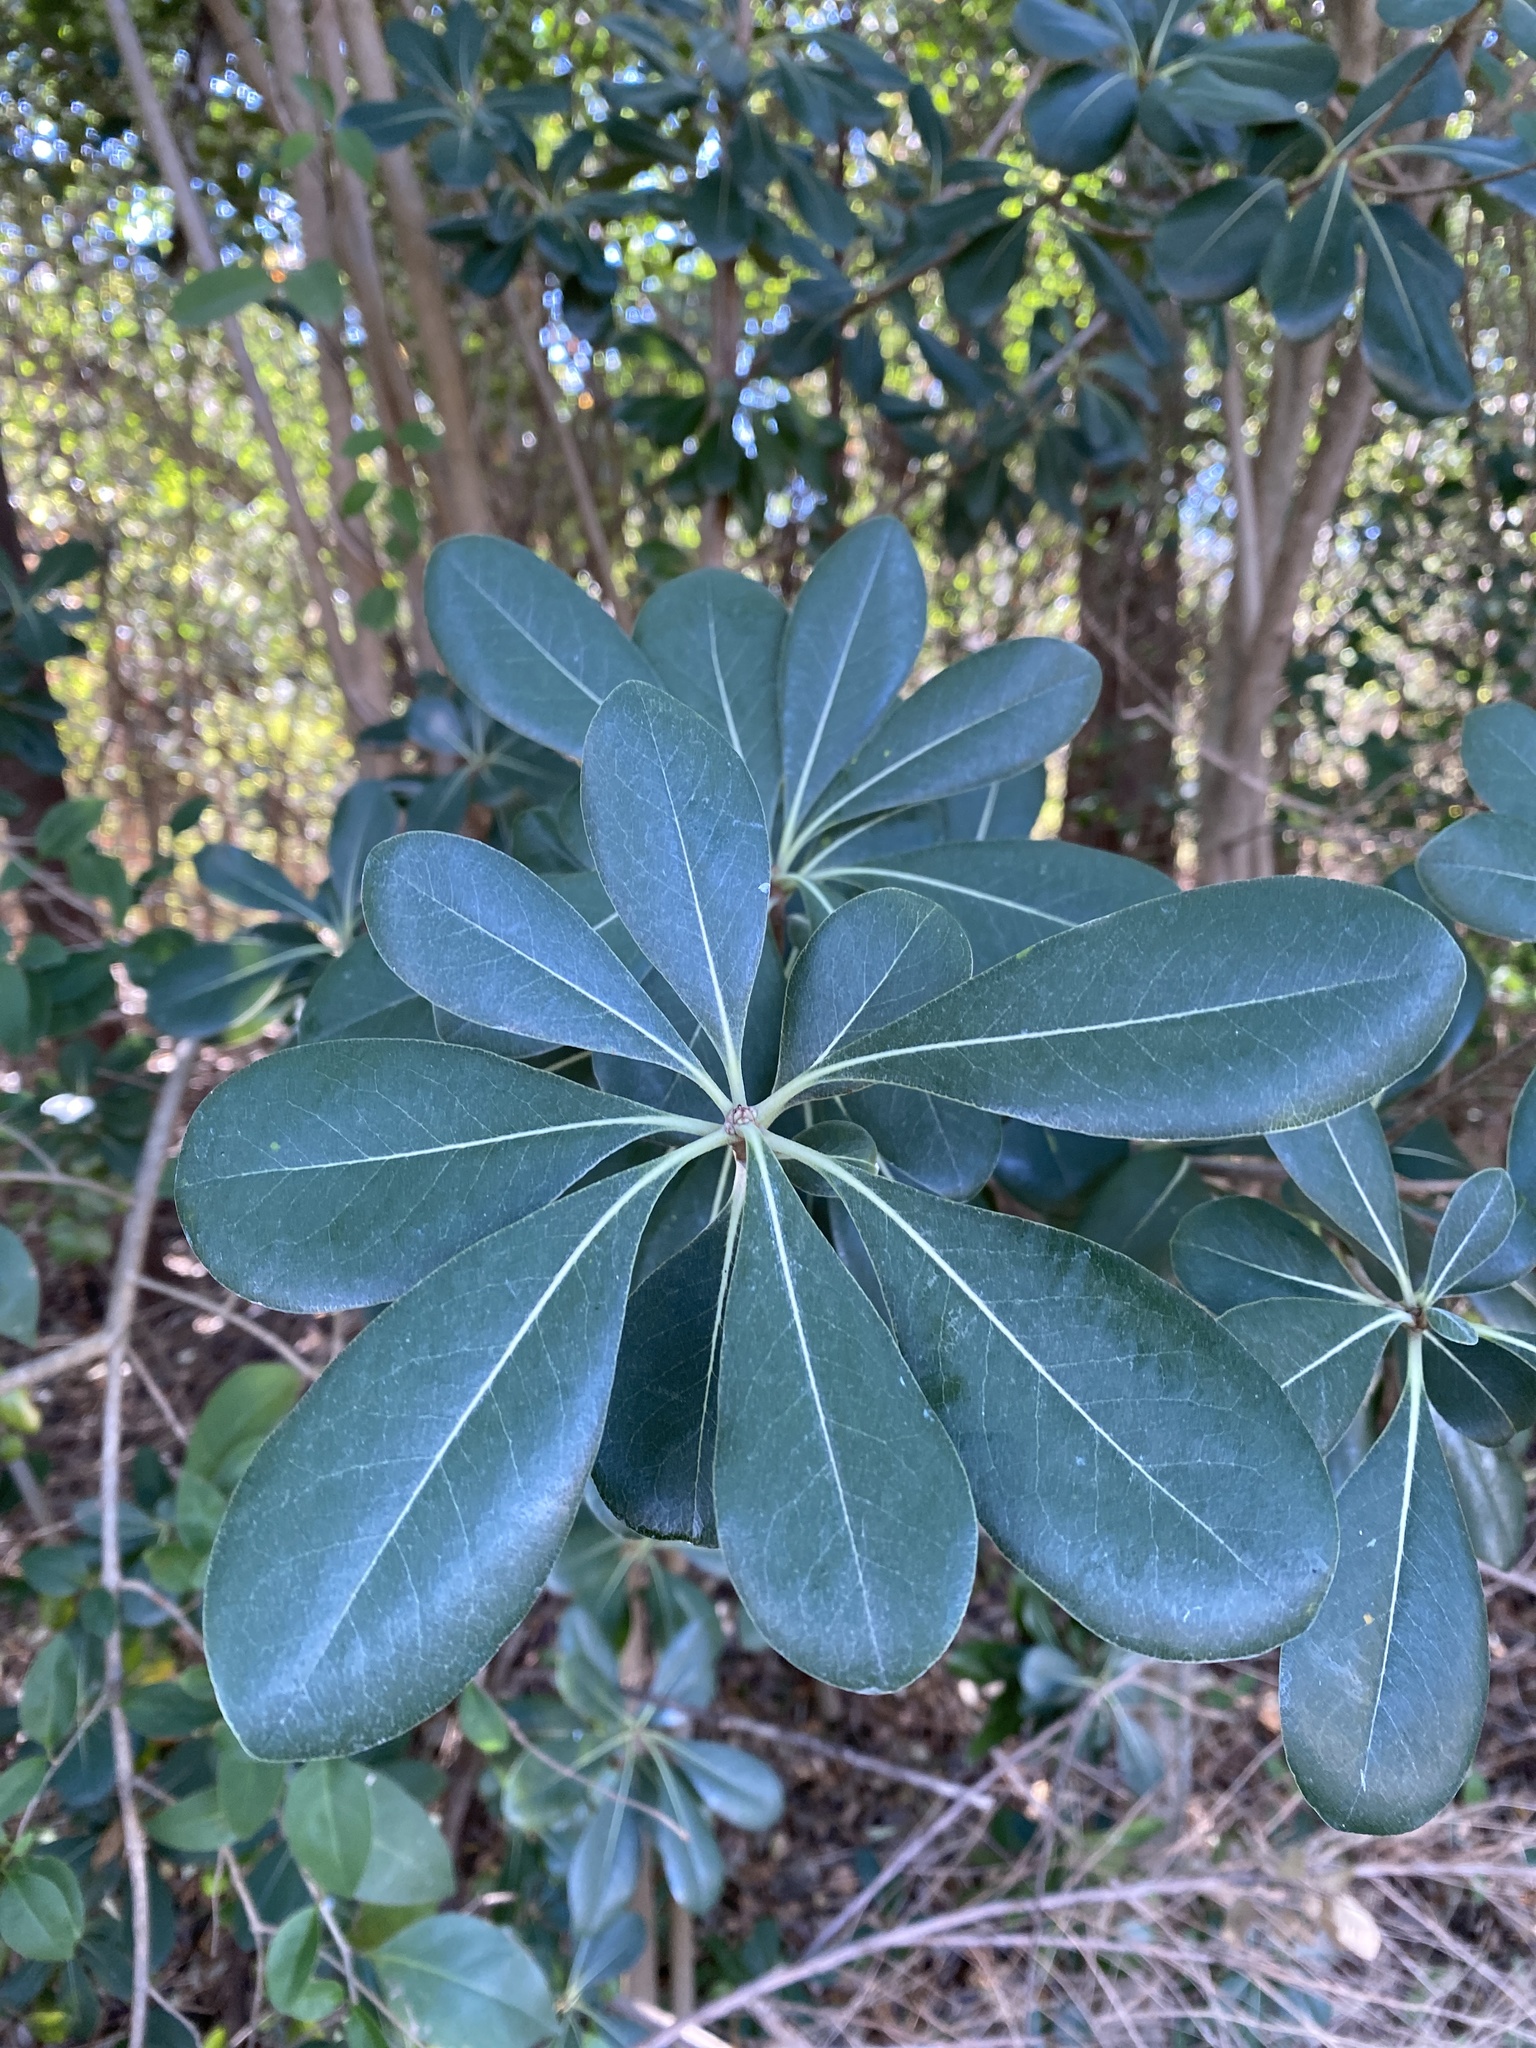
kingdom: Plantae
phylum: Tracheophyta
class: Magnoliopsida
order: Apiales
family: Pittosporaceae
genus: Pittosporum
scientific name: Pittosporum tobira
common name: Japanese cheesewood
